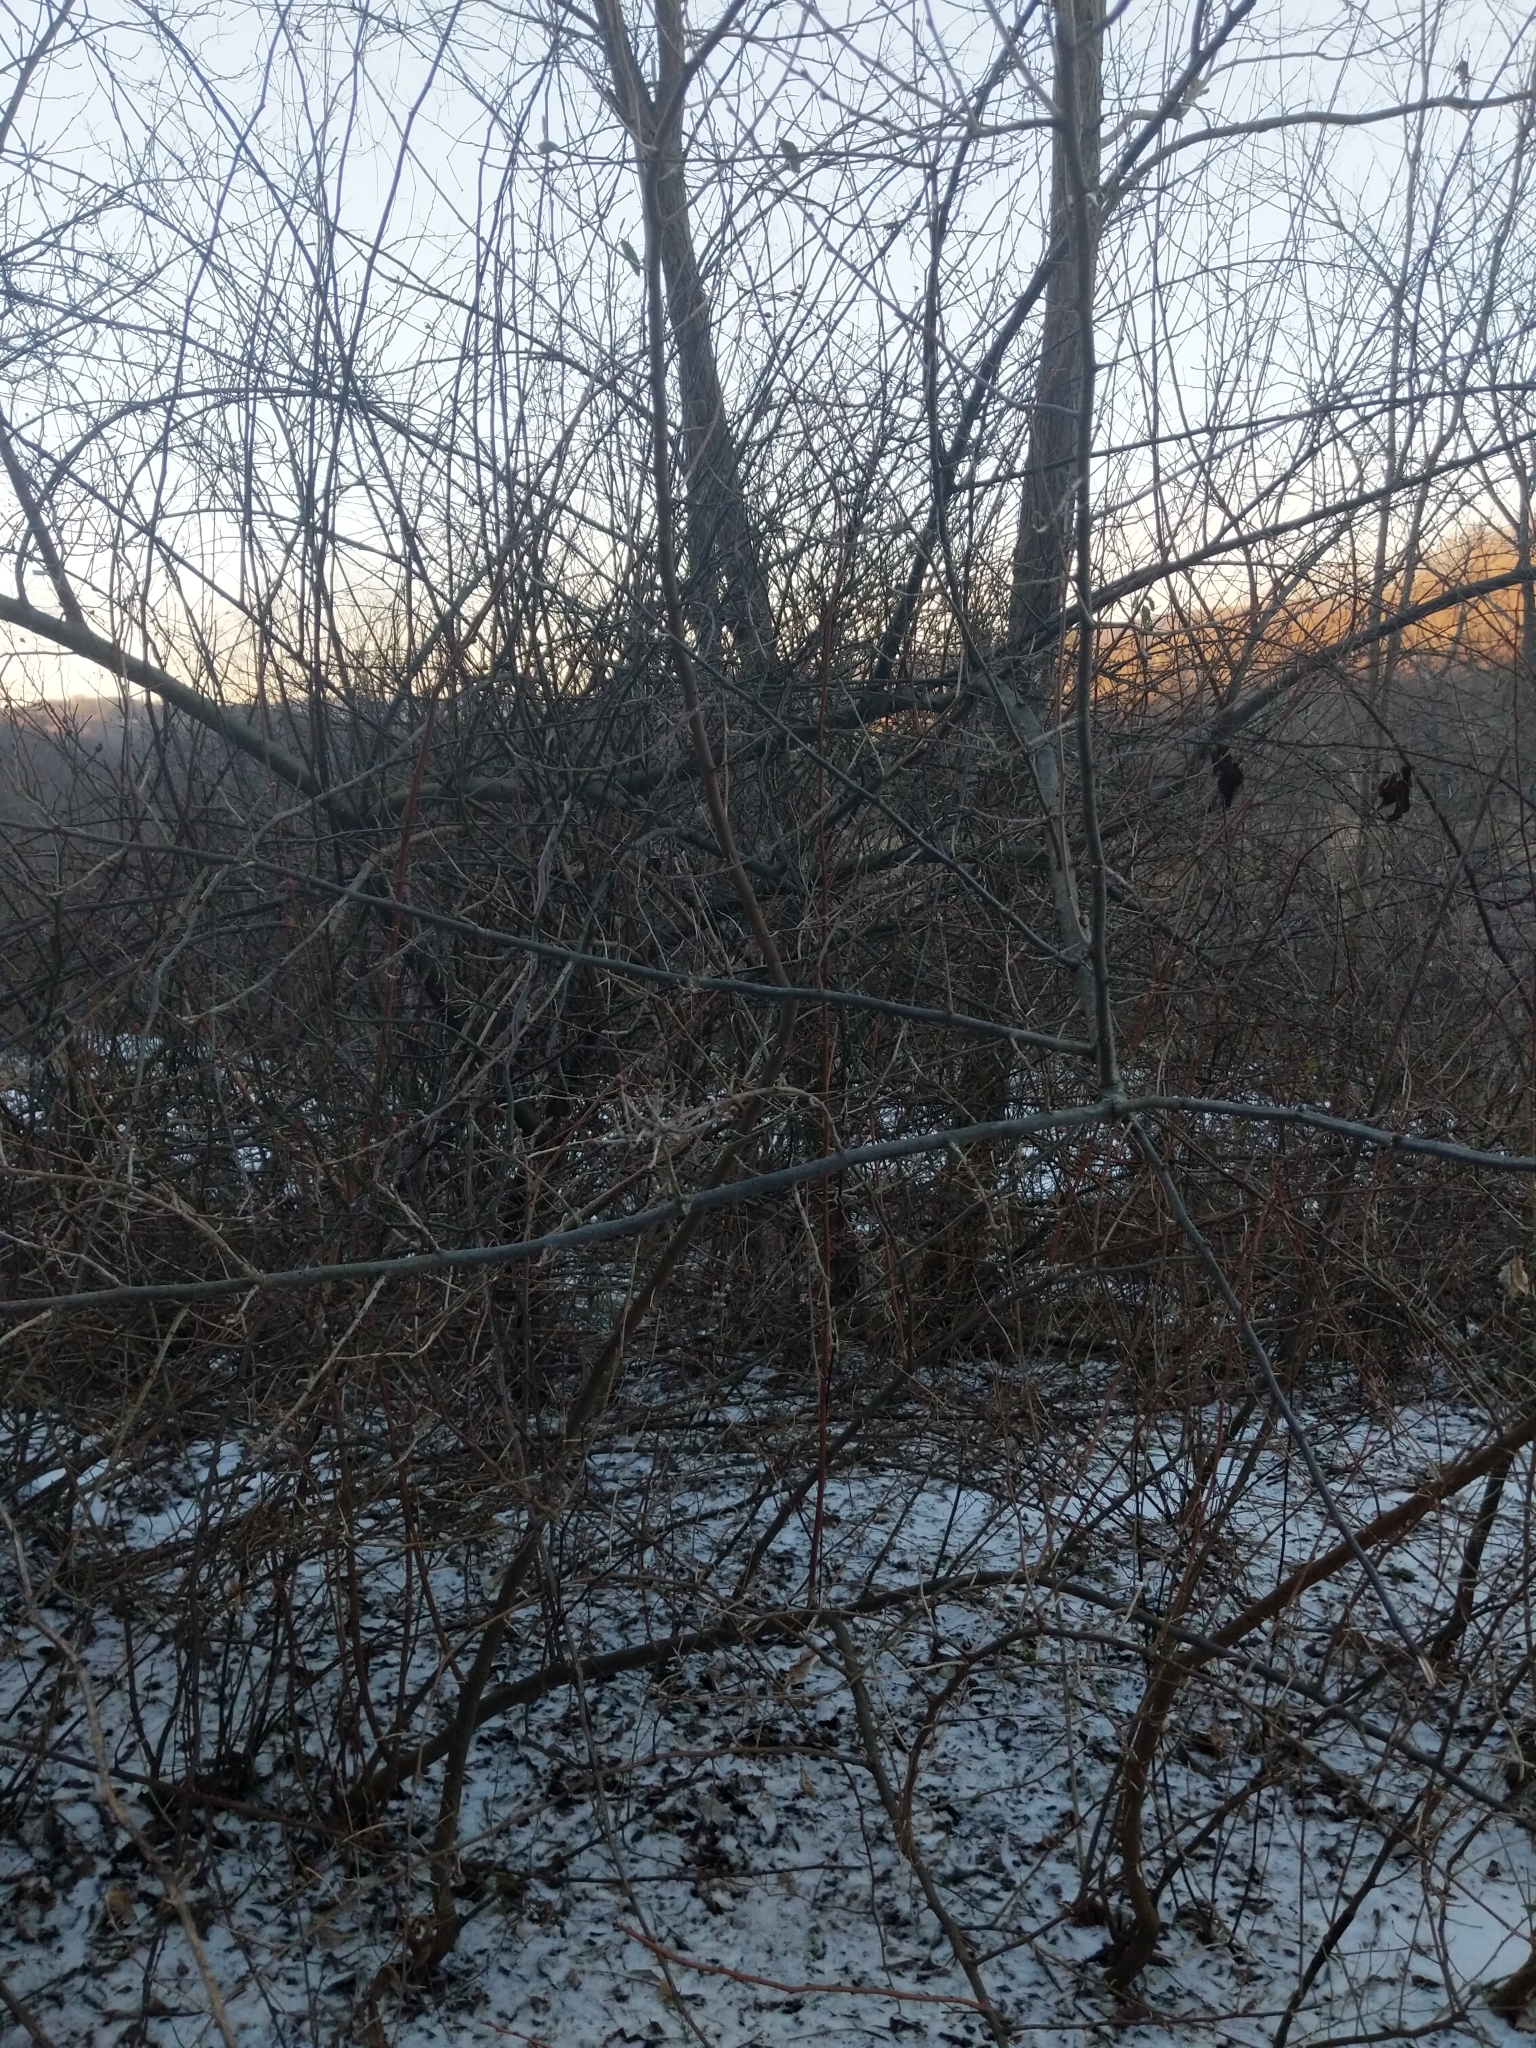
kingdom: Plantae
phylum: Tracheophyta
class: Magnoliopsida
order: Rosales
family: Elaeagnaceae
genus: Elaeagnus
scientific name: Elaeagnus umbellata
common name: Autumn olive
